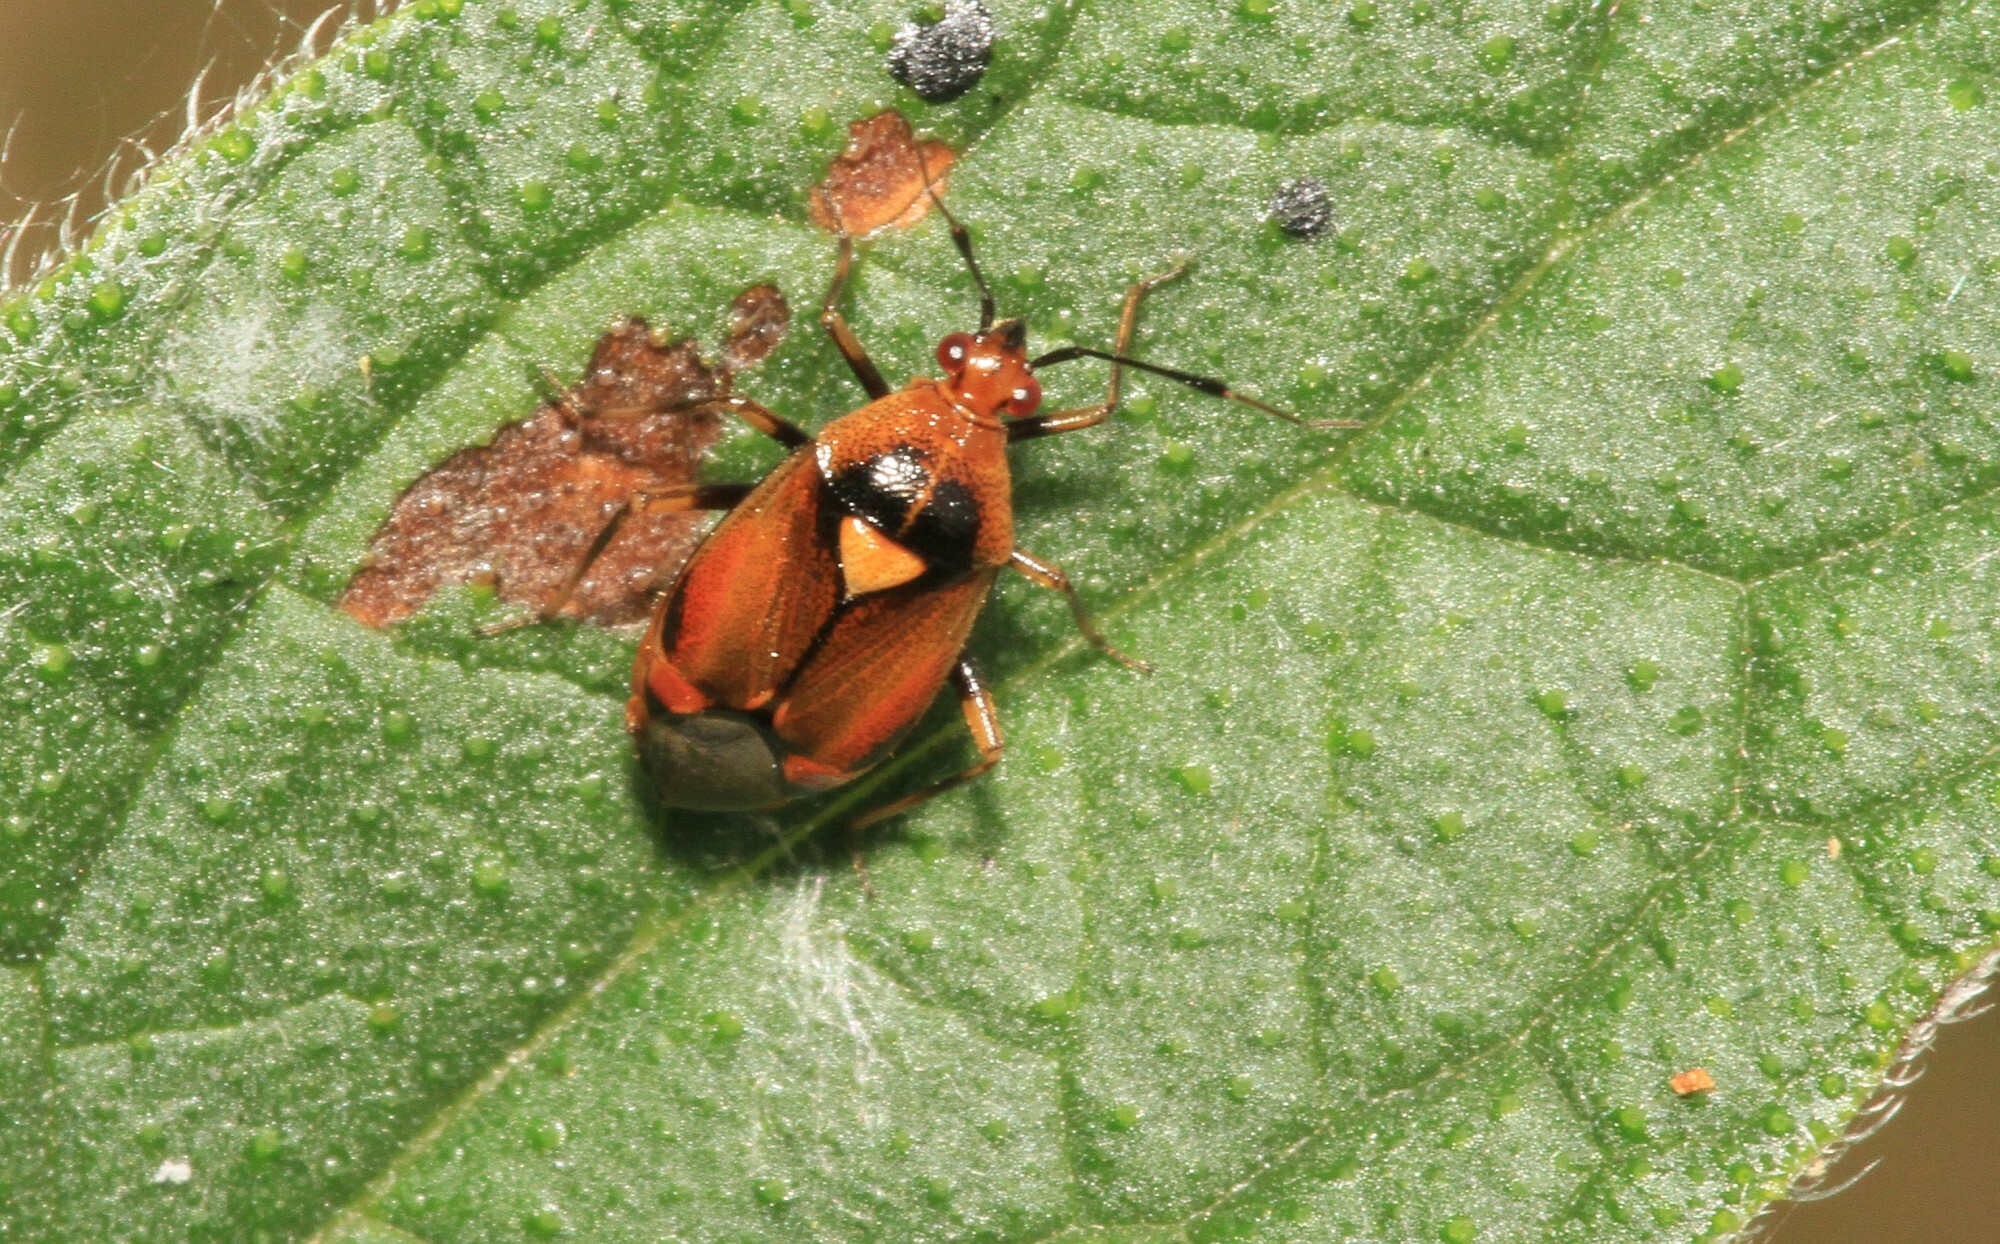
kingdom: Animalia
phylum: Arthropoda
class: Insecta
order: Hemiptera
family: Miridae
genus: Deraeocoris
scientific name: Deraeocoris ruber
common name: Plant bug
